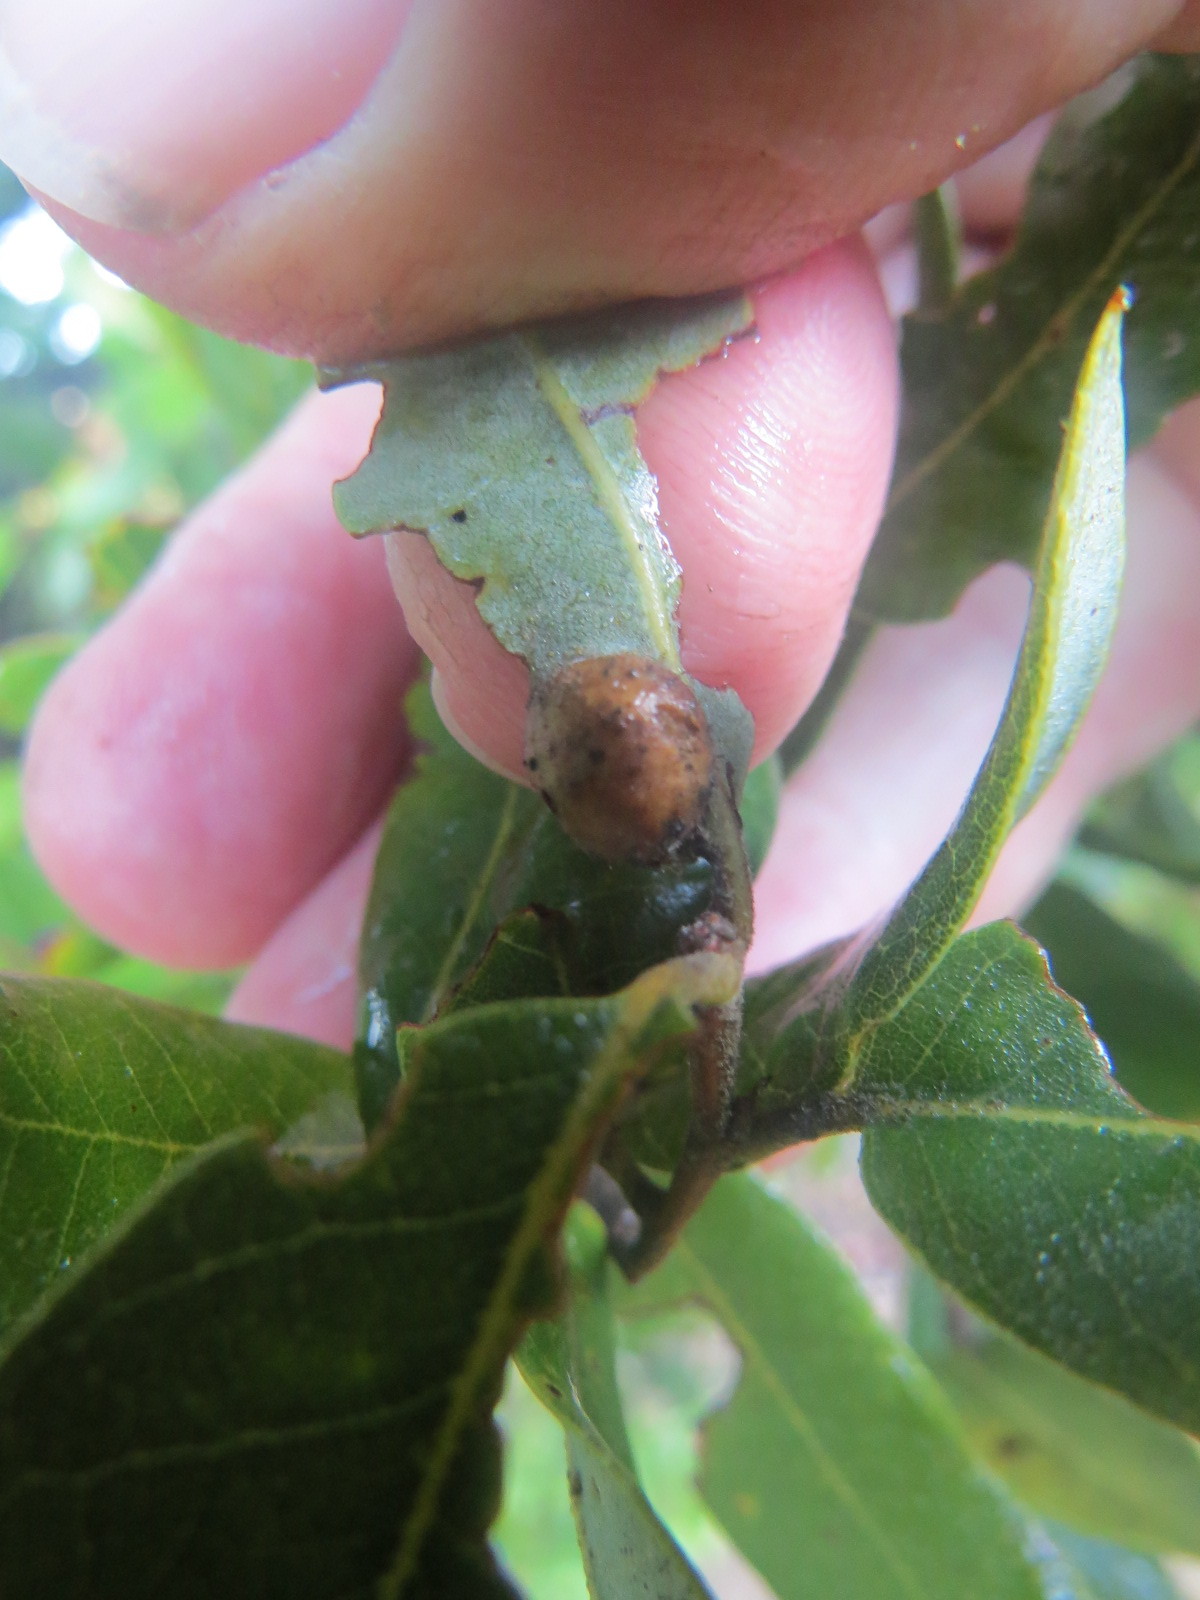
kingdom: Animalia
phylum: Arthropoda
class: Insecta
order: Hymenoptera
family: Cynipidae
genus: Heteroecus
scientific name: Heteroecus
